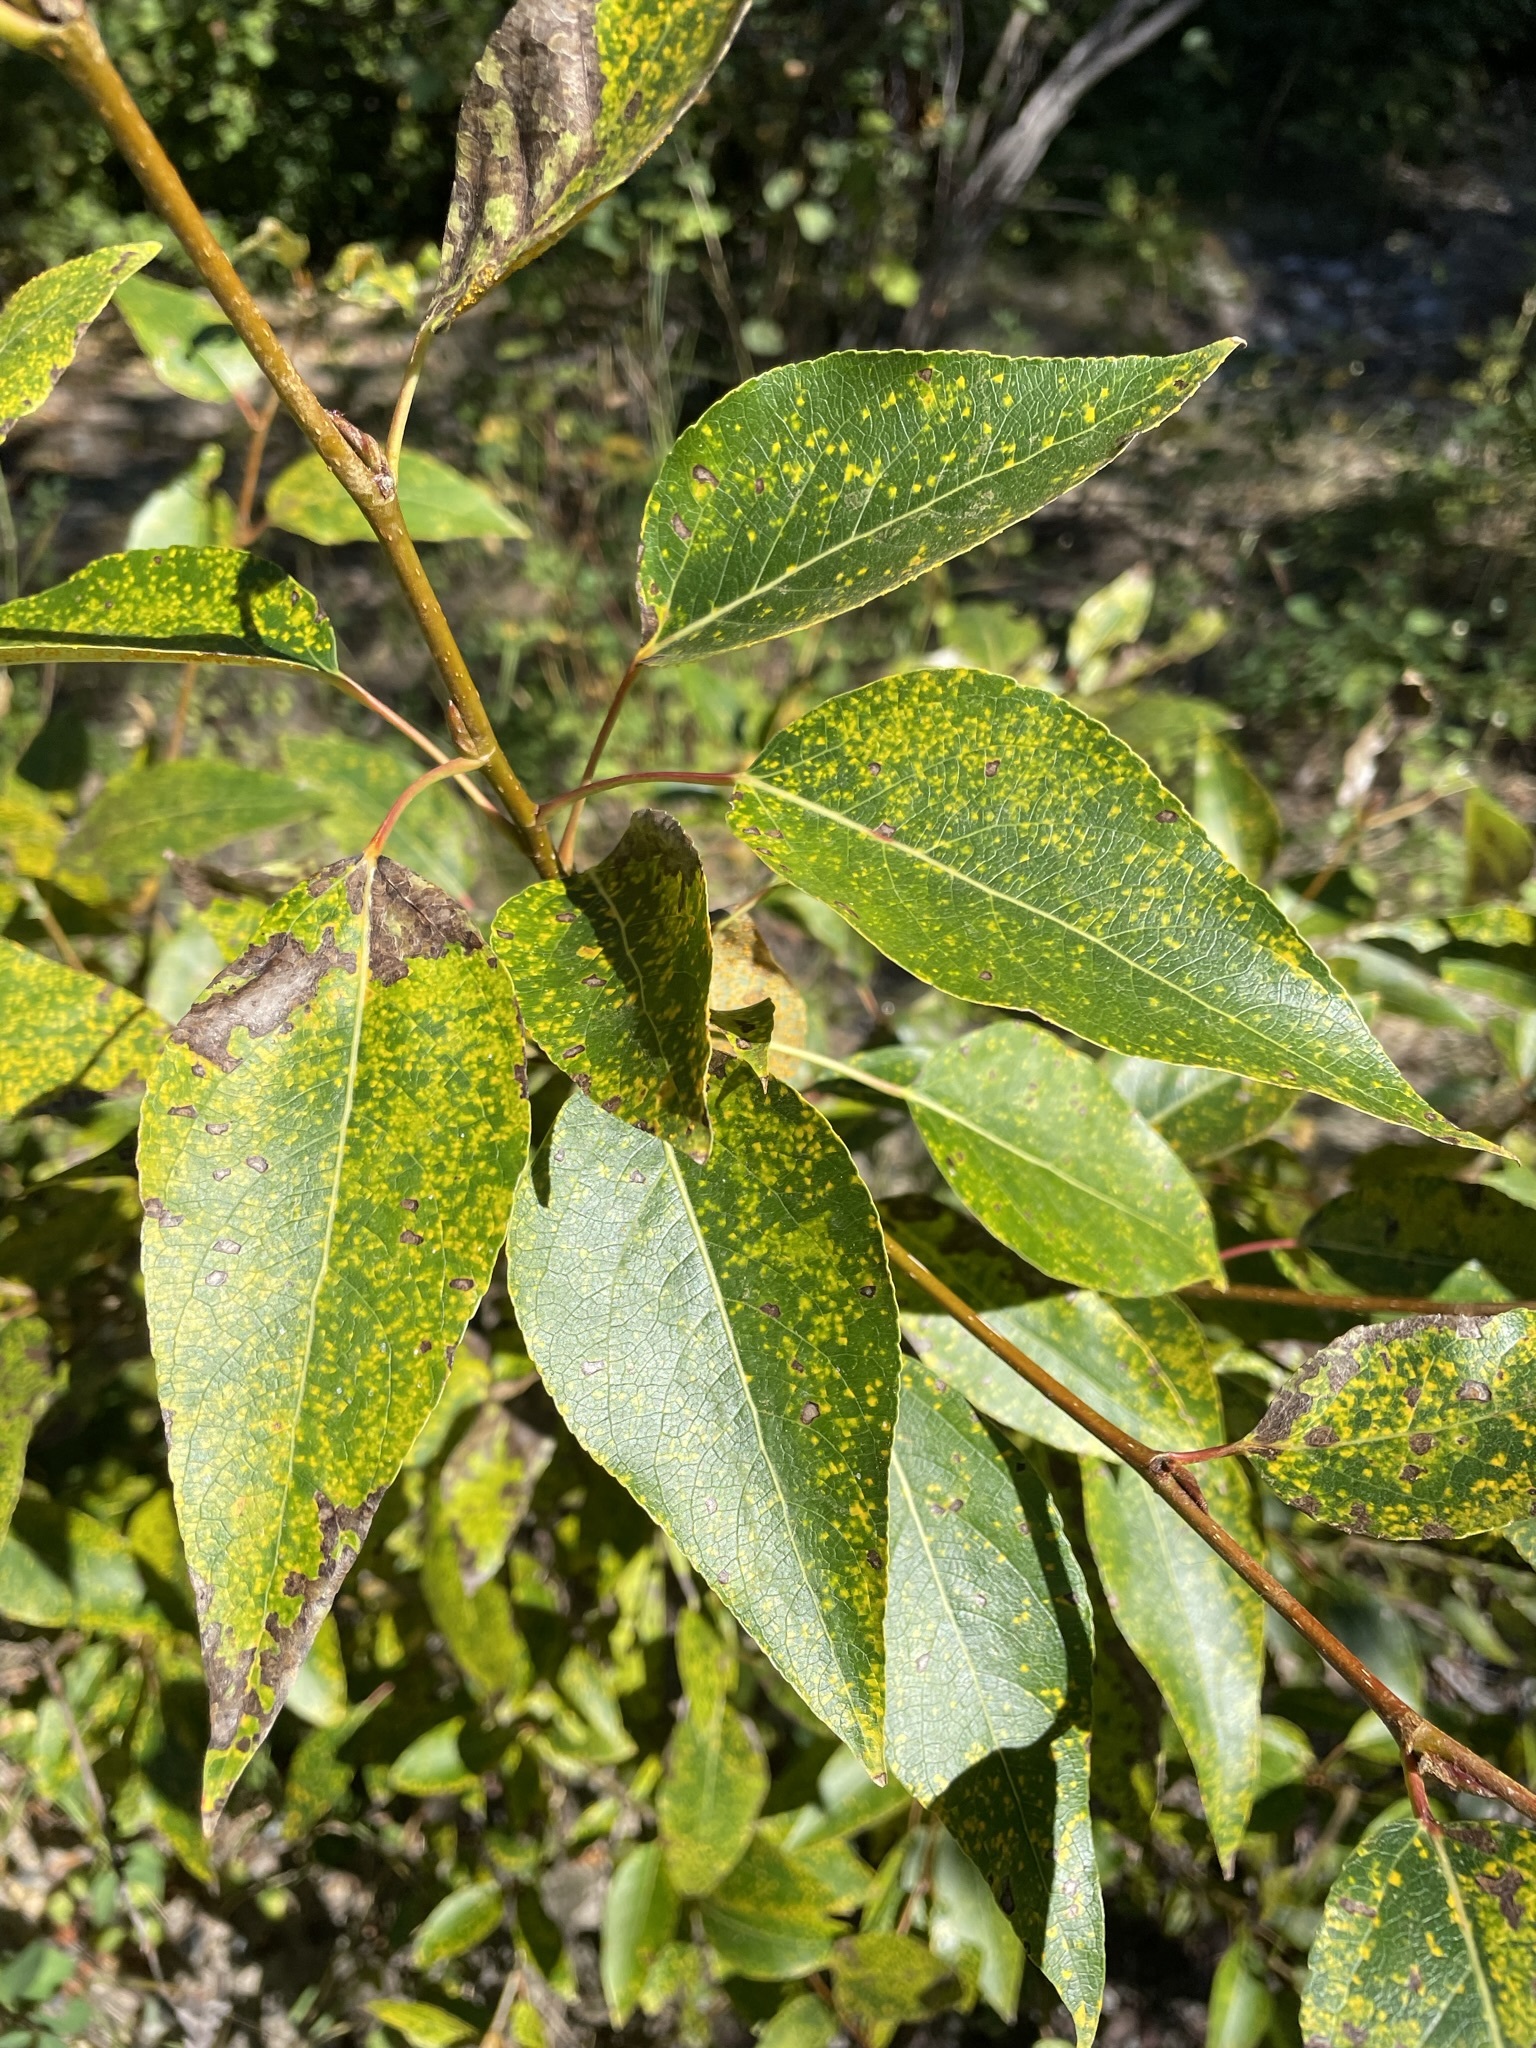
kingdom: Plantae
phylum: Tracheophyta
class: Magnoliopsida
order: Malpighiales
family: Salicaceae
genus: Populus
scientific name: Populus trichocarpa
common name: Black cottonwood
